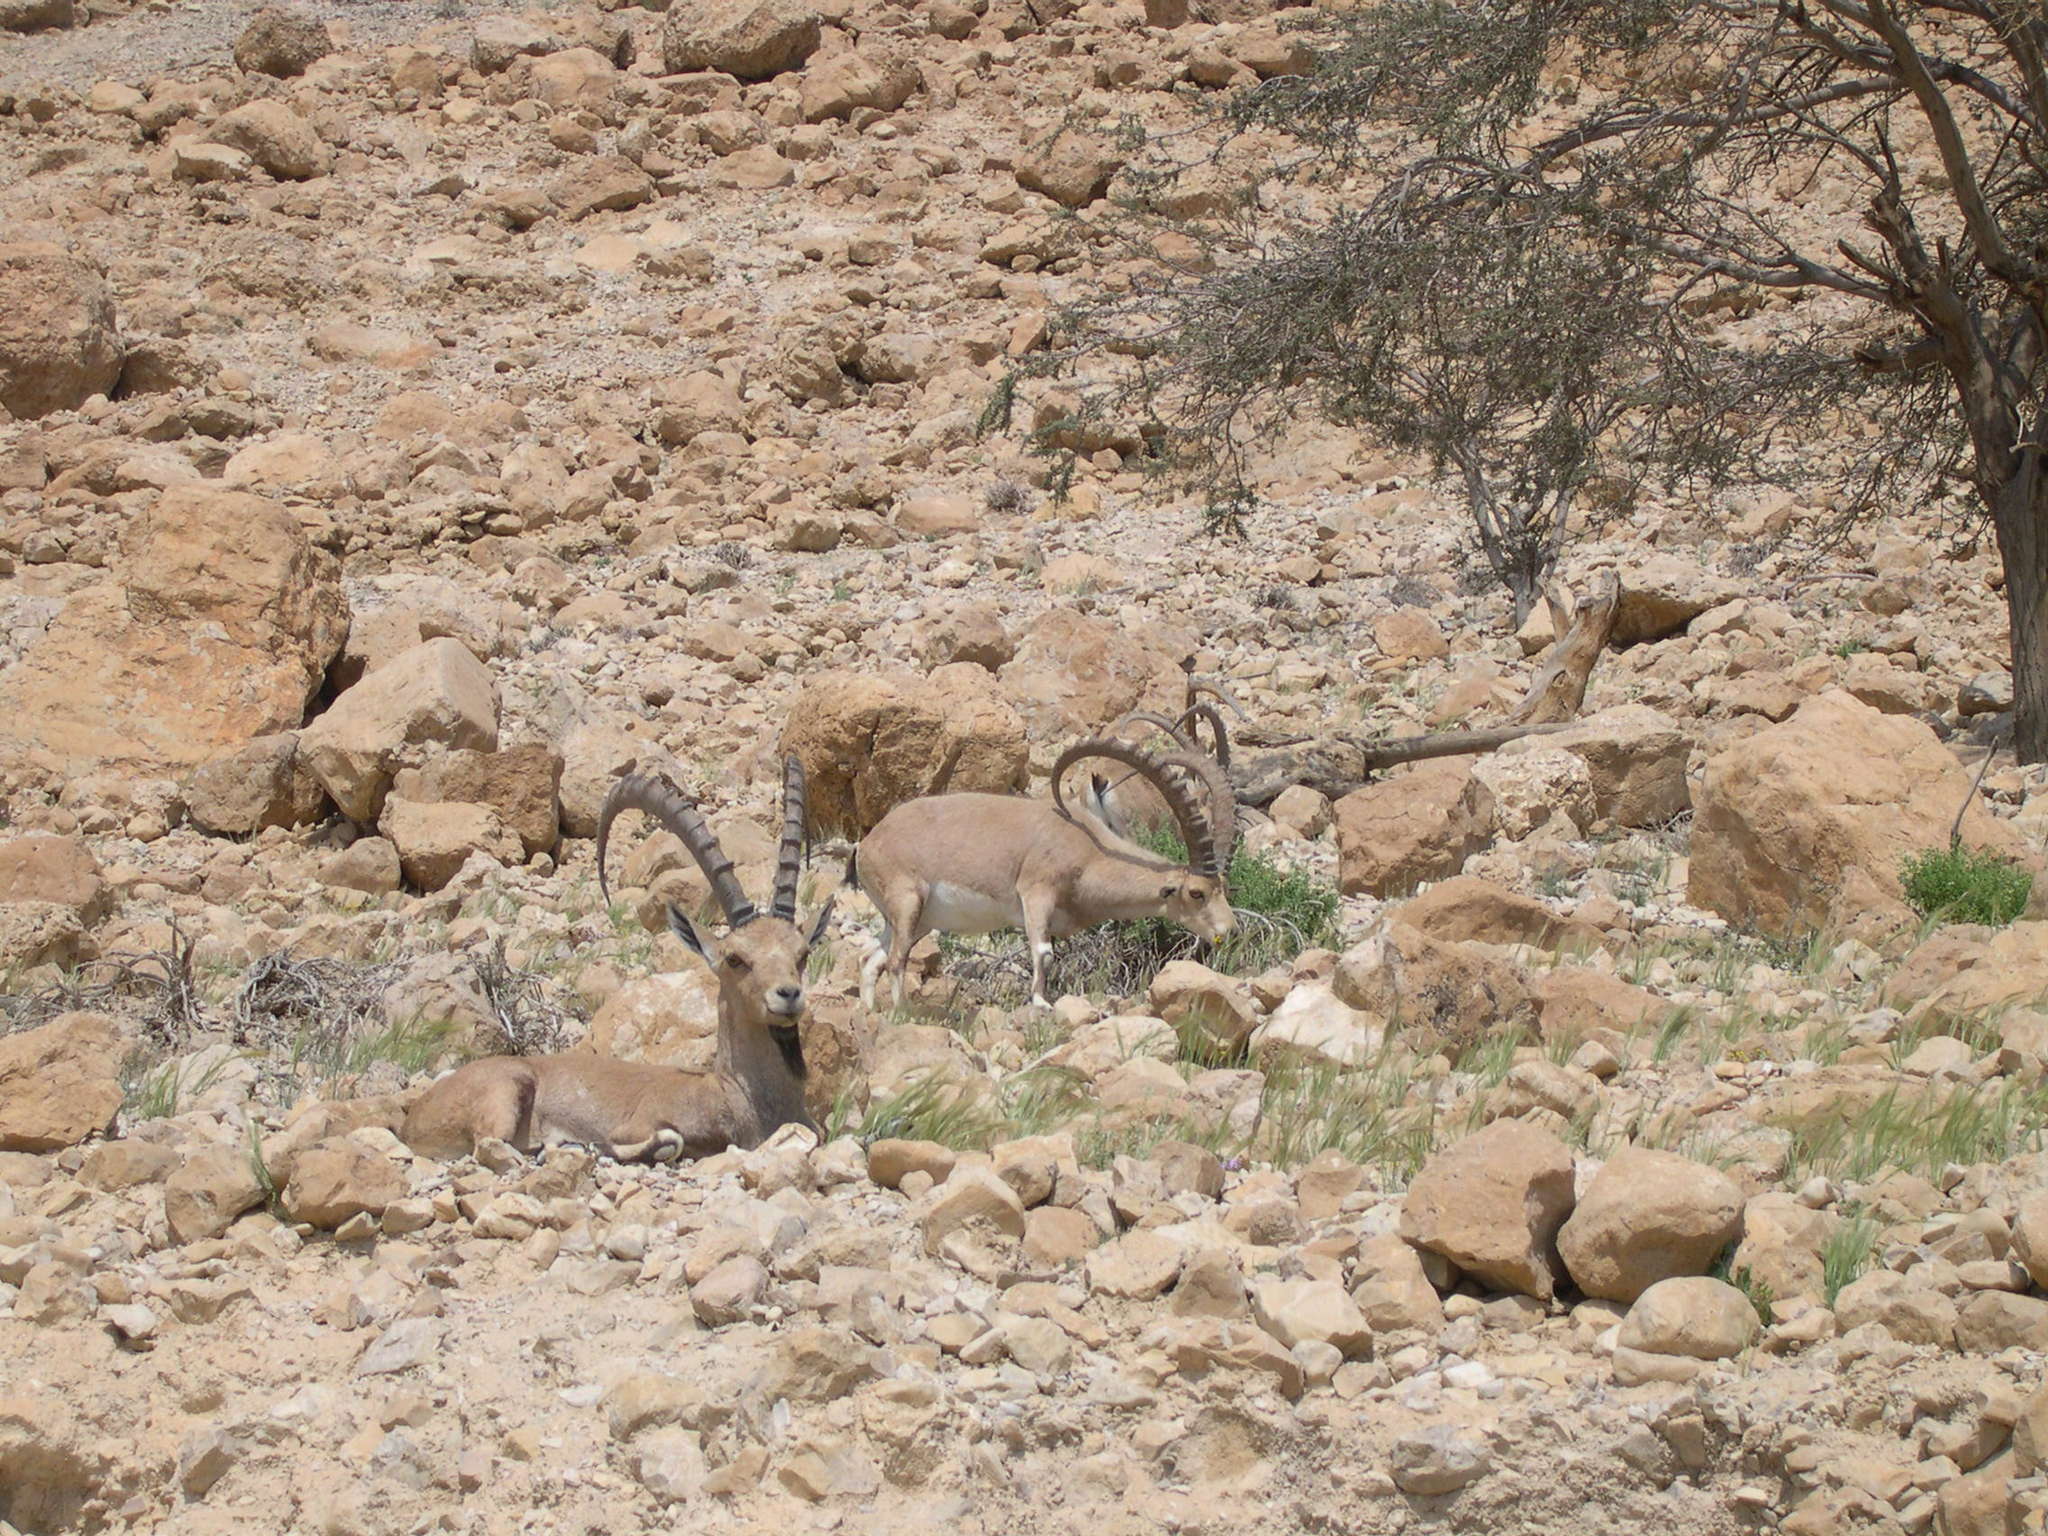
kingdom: Animalia
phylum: Chordata
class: Mammalia
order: Artiodactyla
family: Bovidae
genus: Capra
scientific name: Capra nubiana
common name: Nubian ibex
